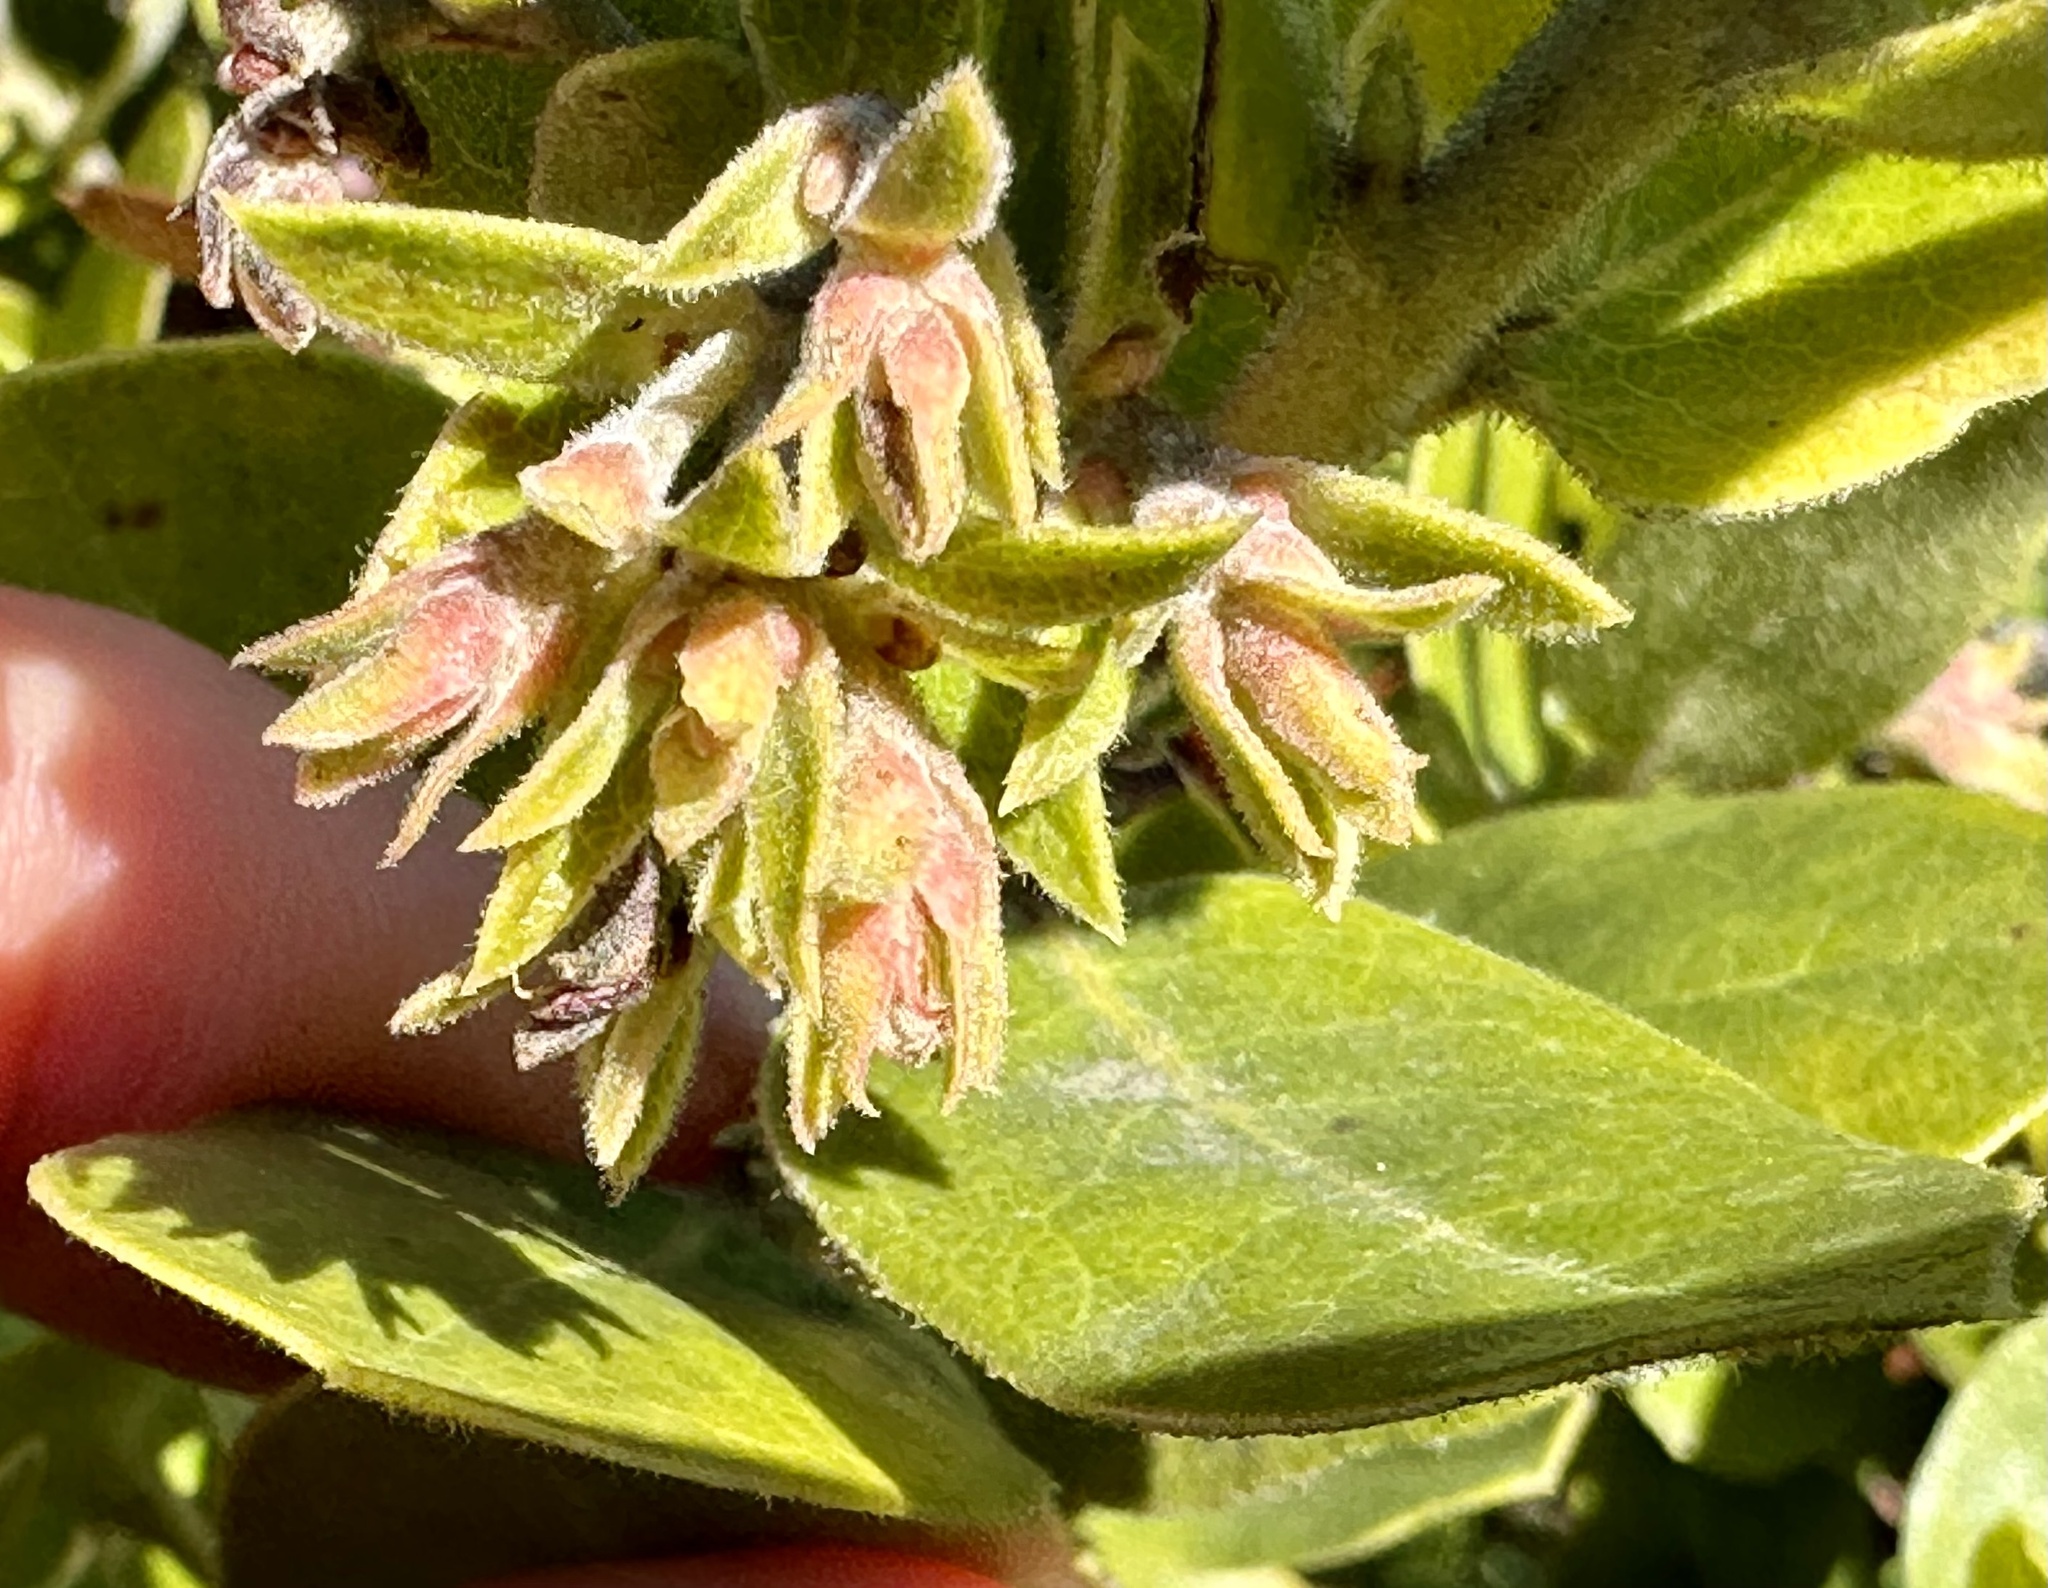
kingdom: Plantae
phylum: Tracheophyta
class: Magnoliopsida
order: Ericales
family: Ericaceae
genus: Arctostaphylos
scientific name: Arctostaphylos tomentosa
